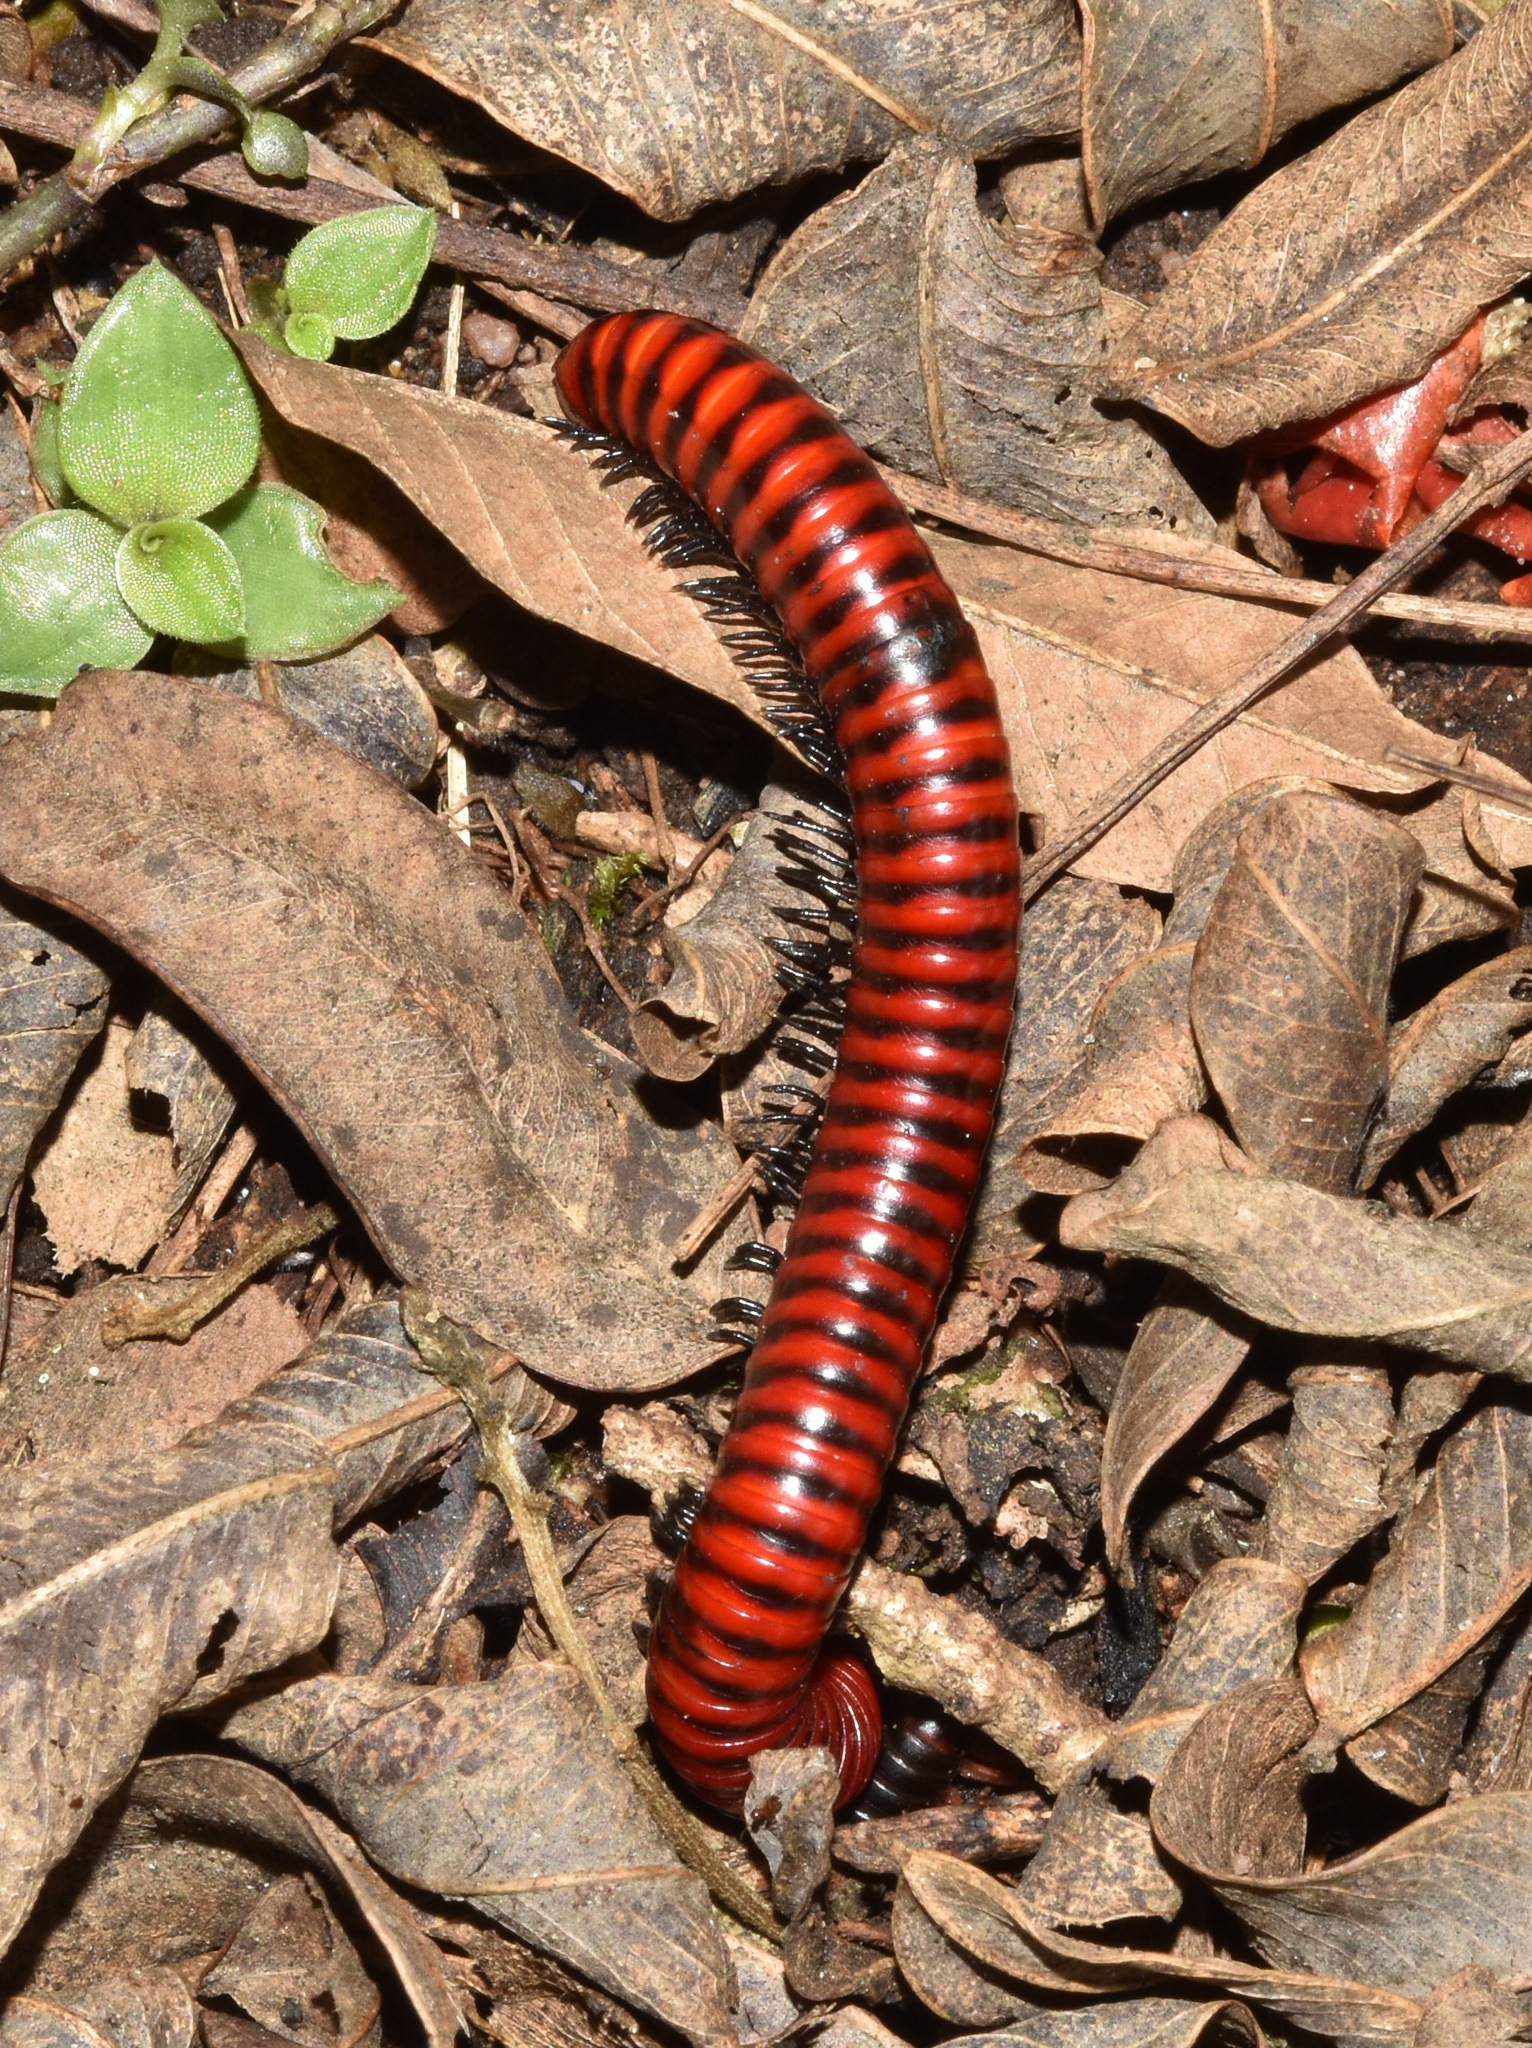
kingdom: Animalia
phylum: Arthropoda
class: Diplopoda
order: Spirobolida
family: Pachybolidae
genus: Centrobolus
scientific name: Centrobolus anulatus
